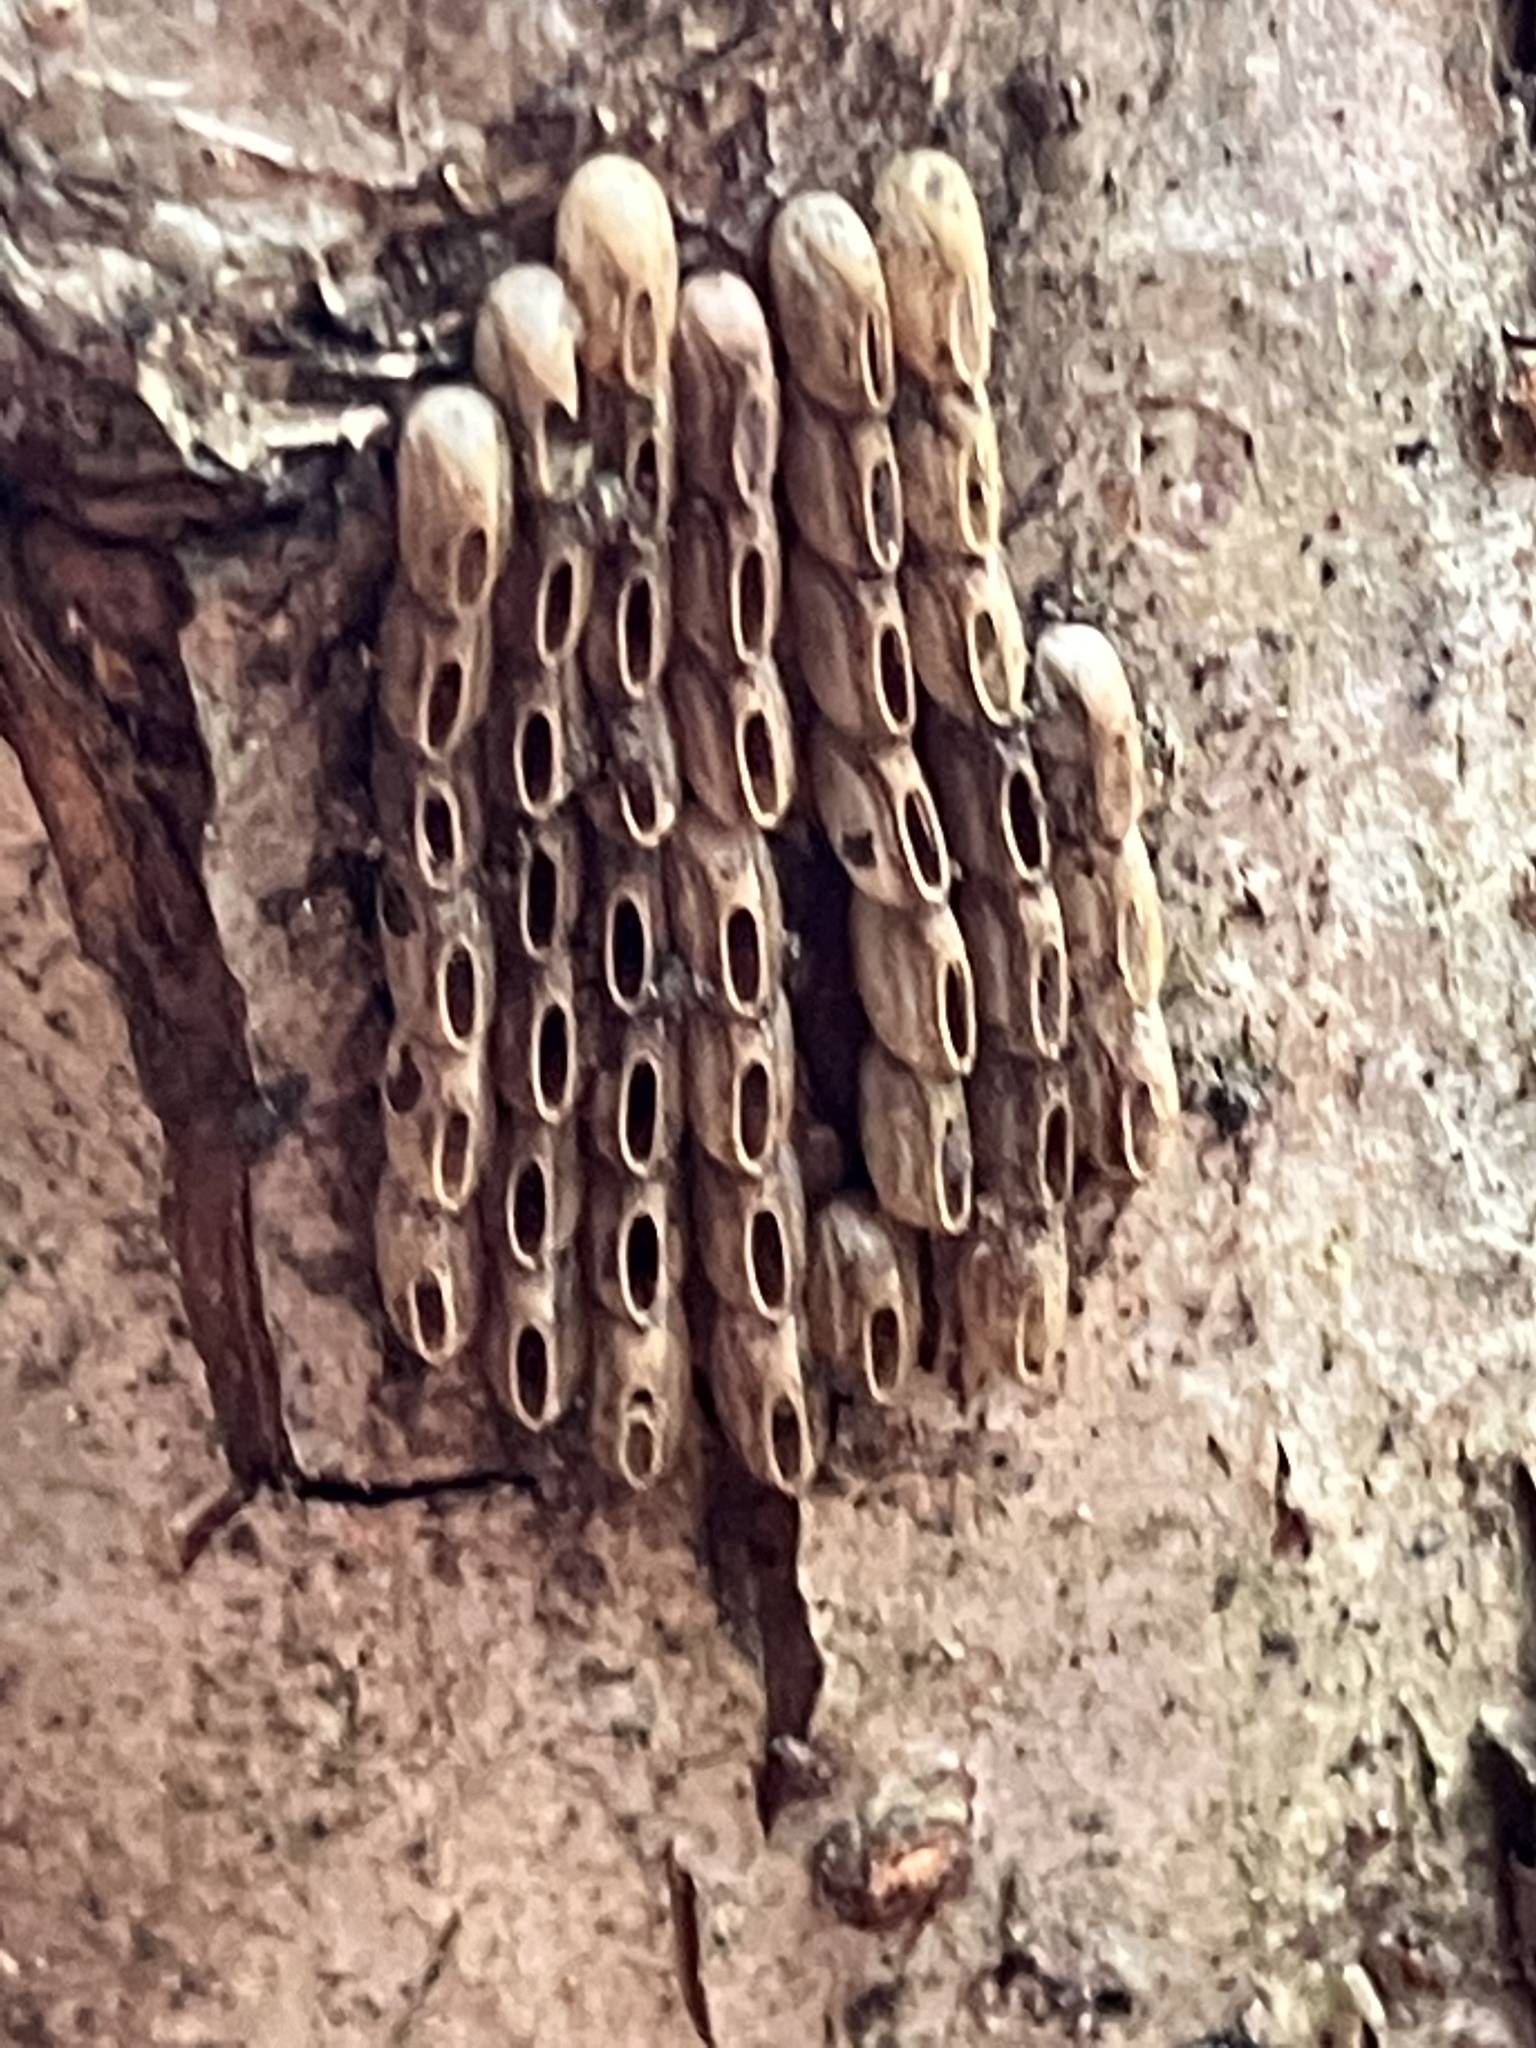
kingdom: Animalia
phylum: Arthropoda
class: Insecta
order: Hemiptera
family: Fulgoridae
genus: Lycorma
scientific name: Lycorma delicatula
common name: Spotted lanternfly
